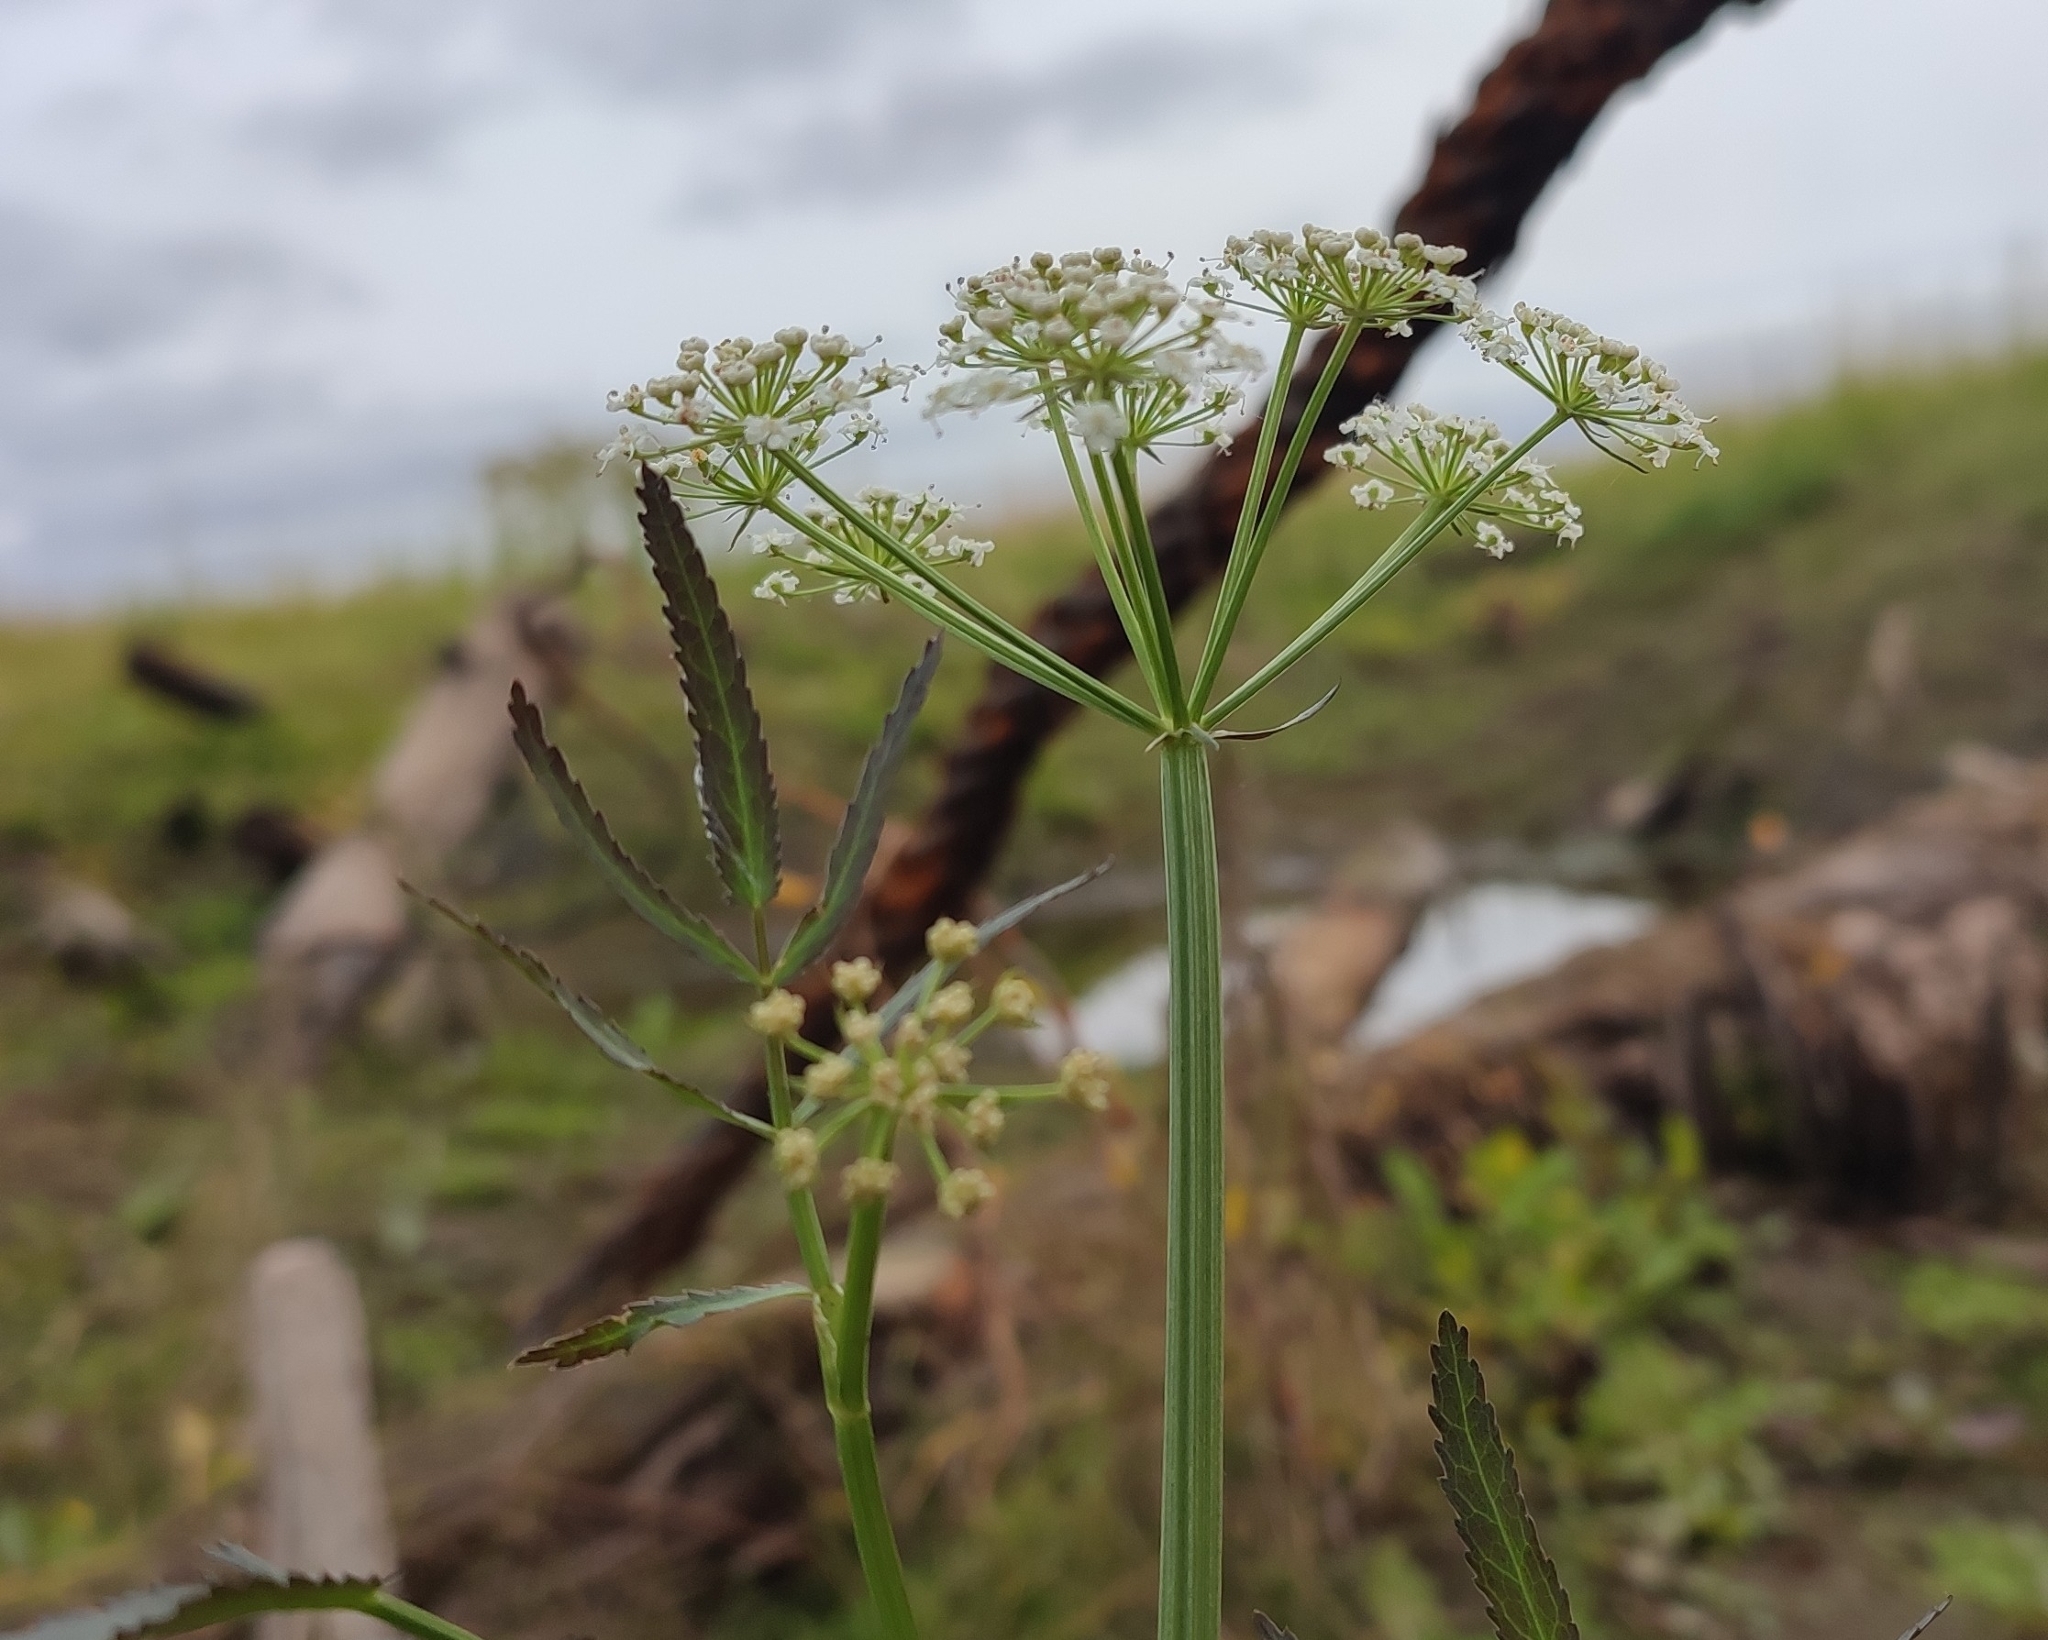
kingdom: Plantae
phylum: Tracheophyta
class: Magnoliopsida
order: Apiales
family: Apiaceae
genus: Sium
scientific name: Sium latifolium
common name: Greater water-parsnip
